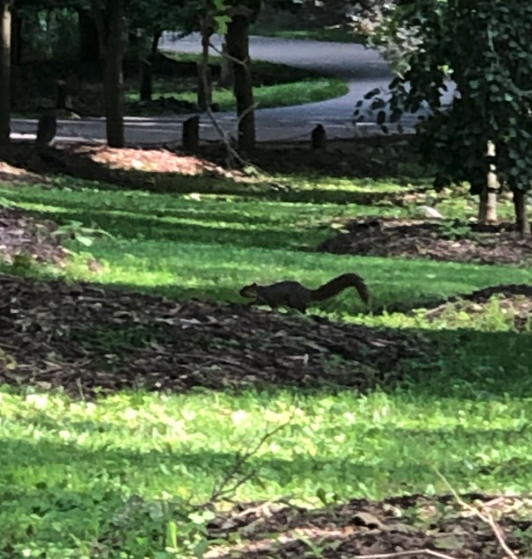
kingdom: Animalia
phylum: Chordata
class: Mammalia
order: Rodentia
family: Sciuridae
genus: Sciurus
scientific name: Sciurus niger
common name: Fox squirrel
